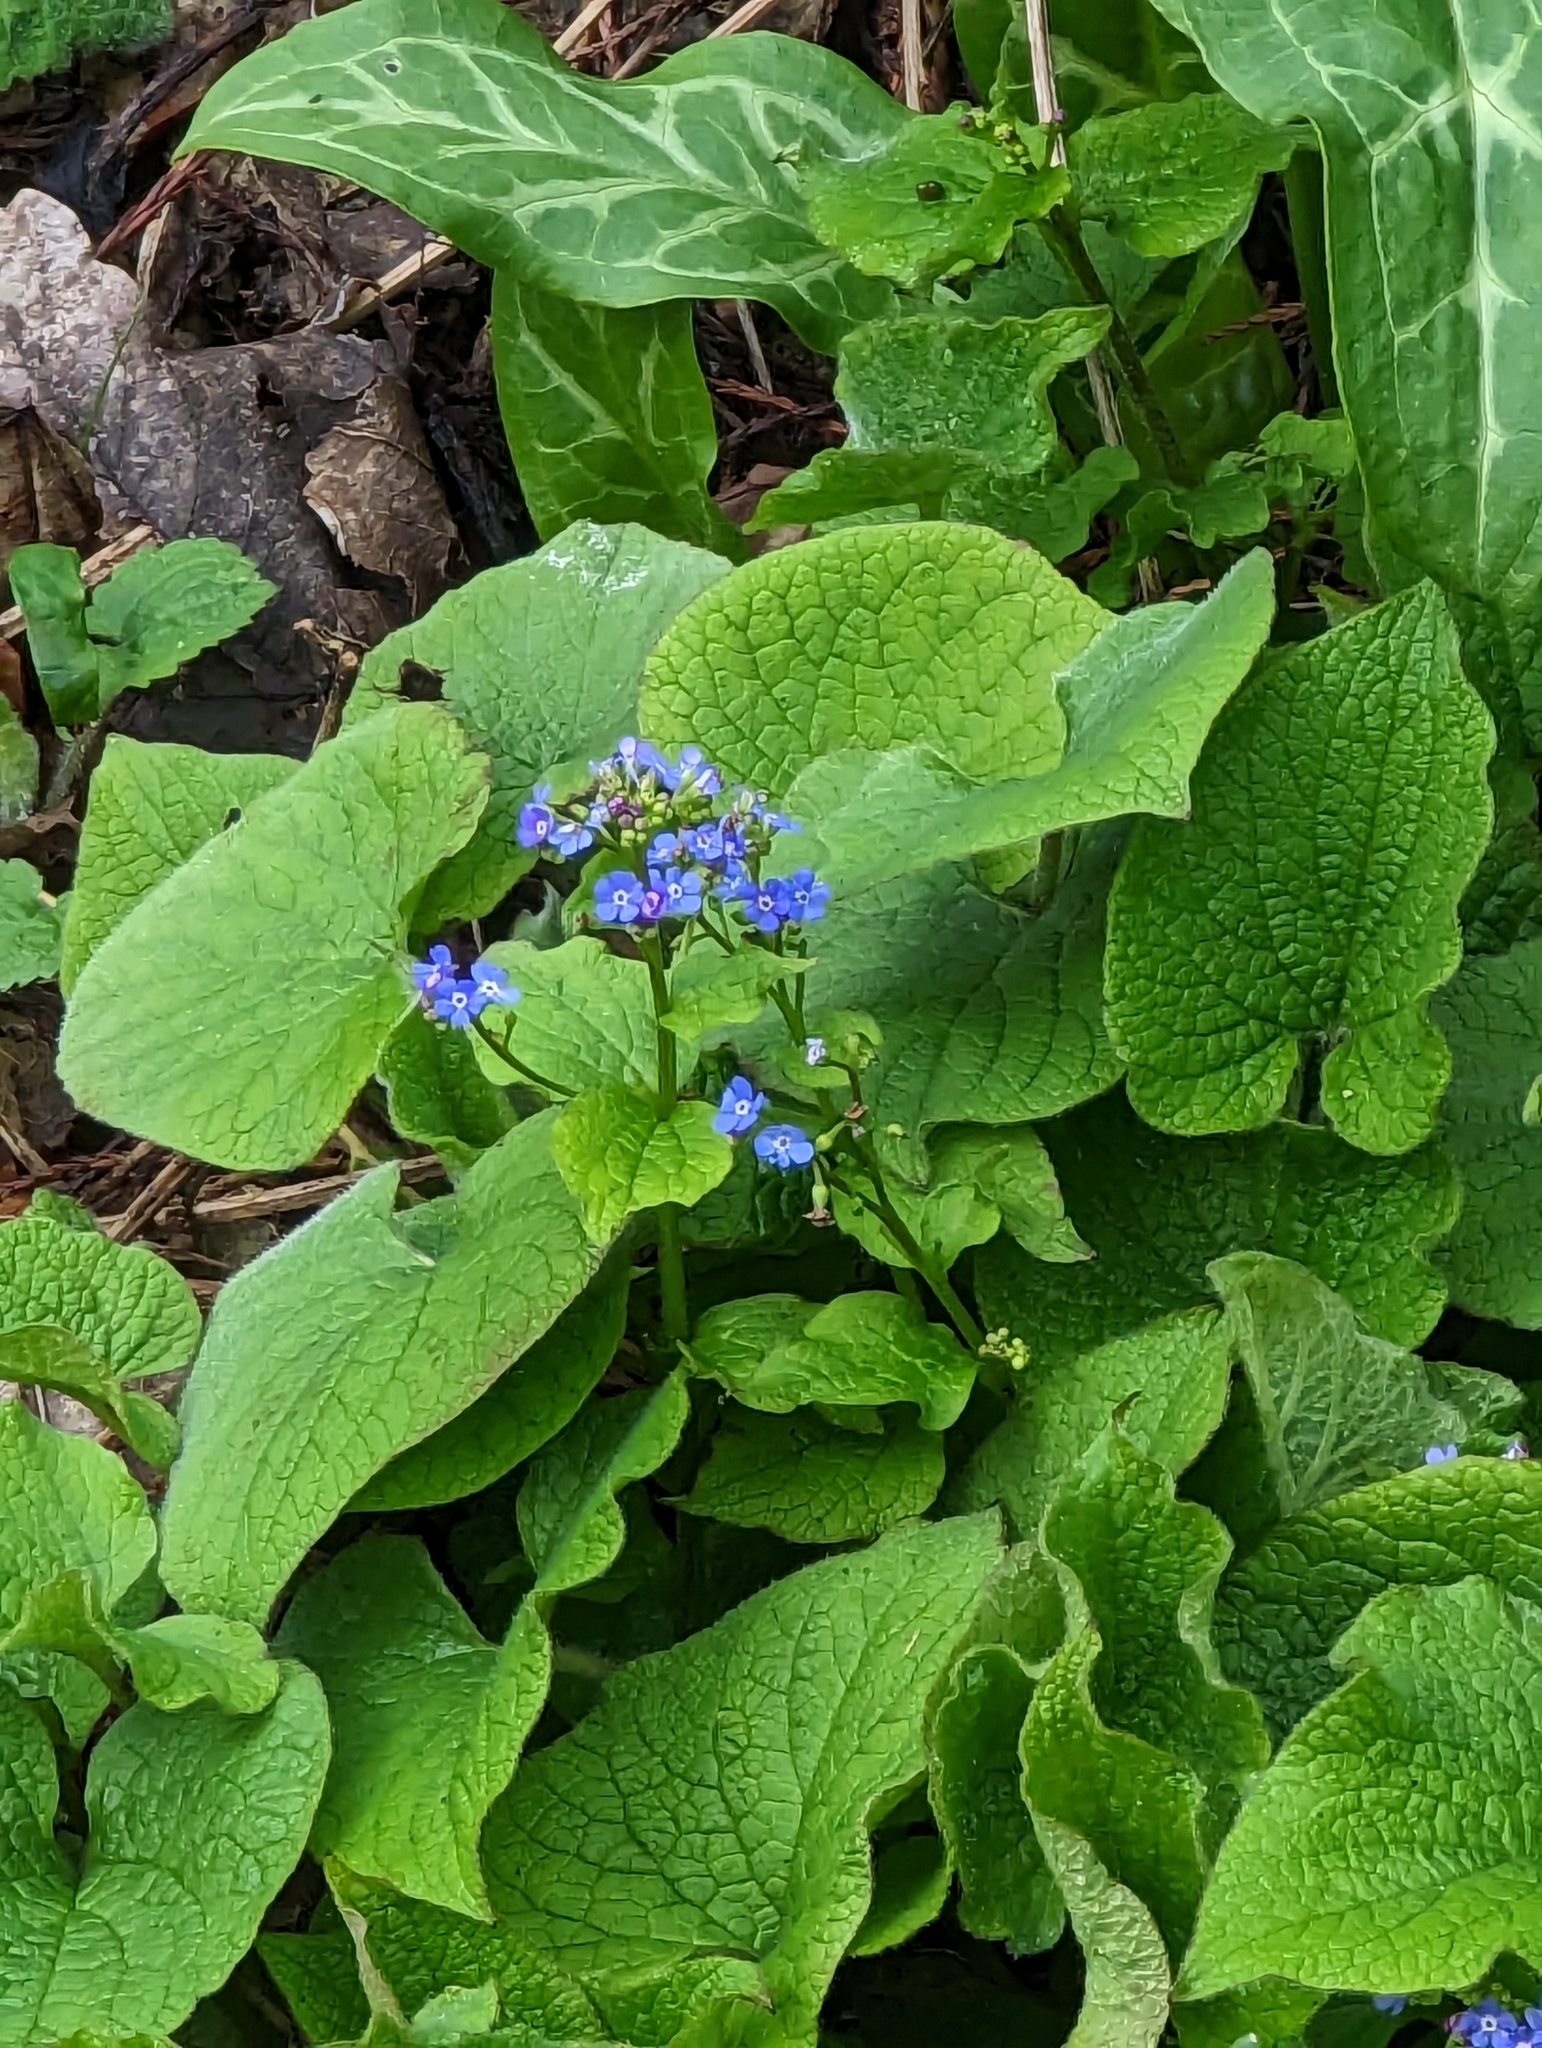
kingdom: Plantae
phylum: Tracheophyta
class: Magnoliopsida
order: Boraginales
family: Boraginaceae
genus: Brunnera
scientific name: Brunnera macrophylla
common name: Great forget-me-not
